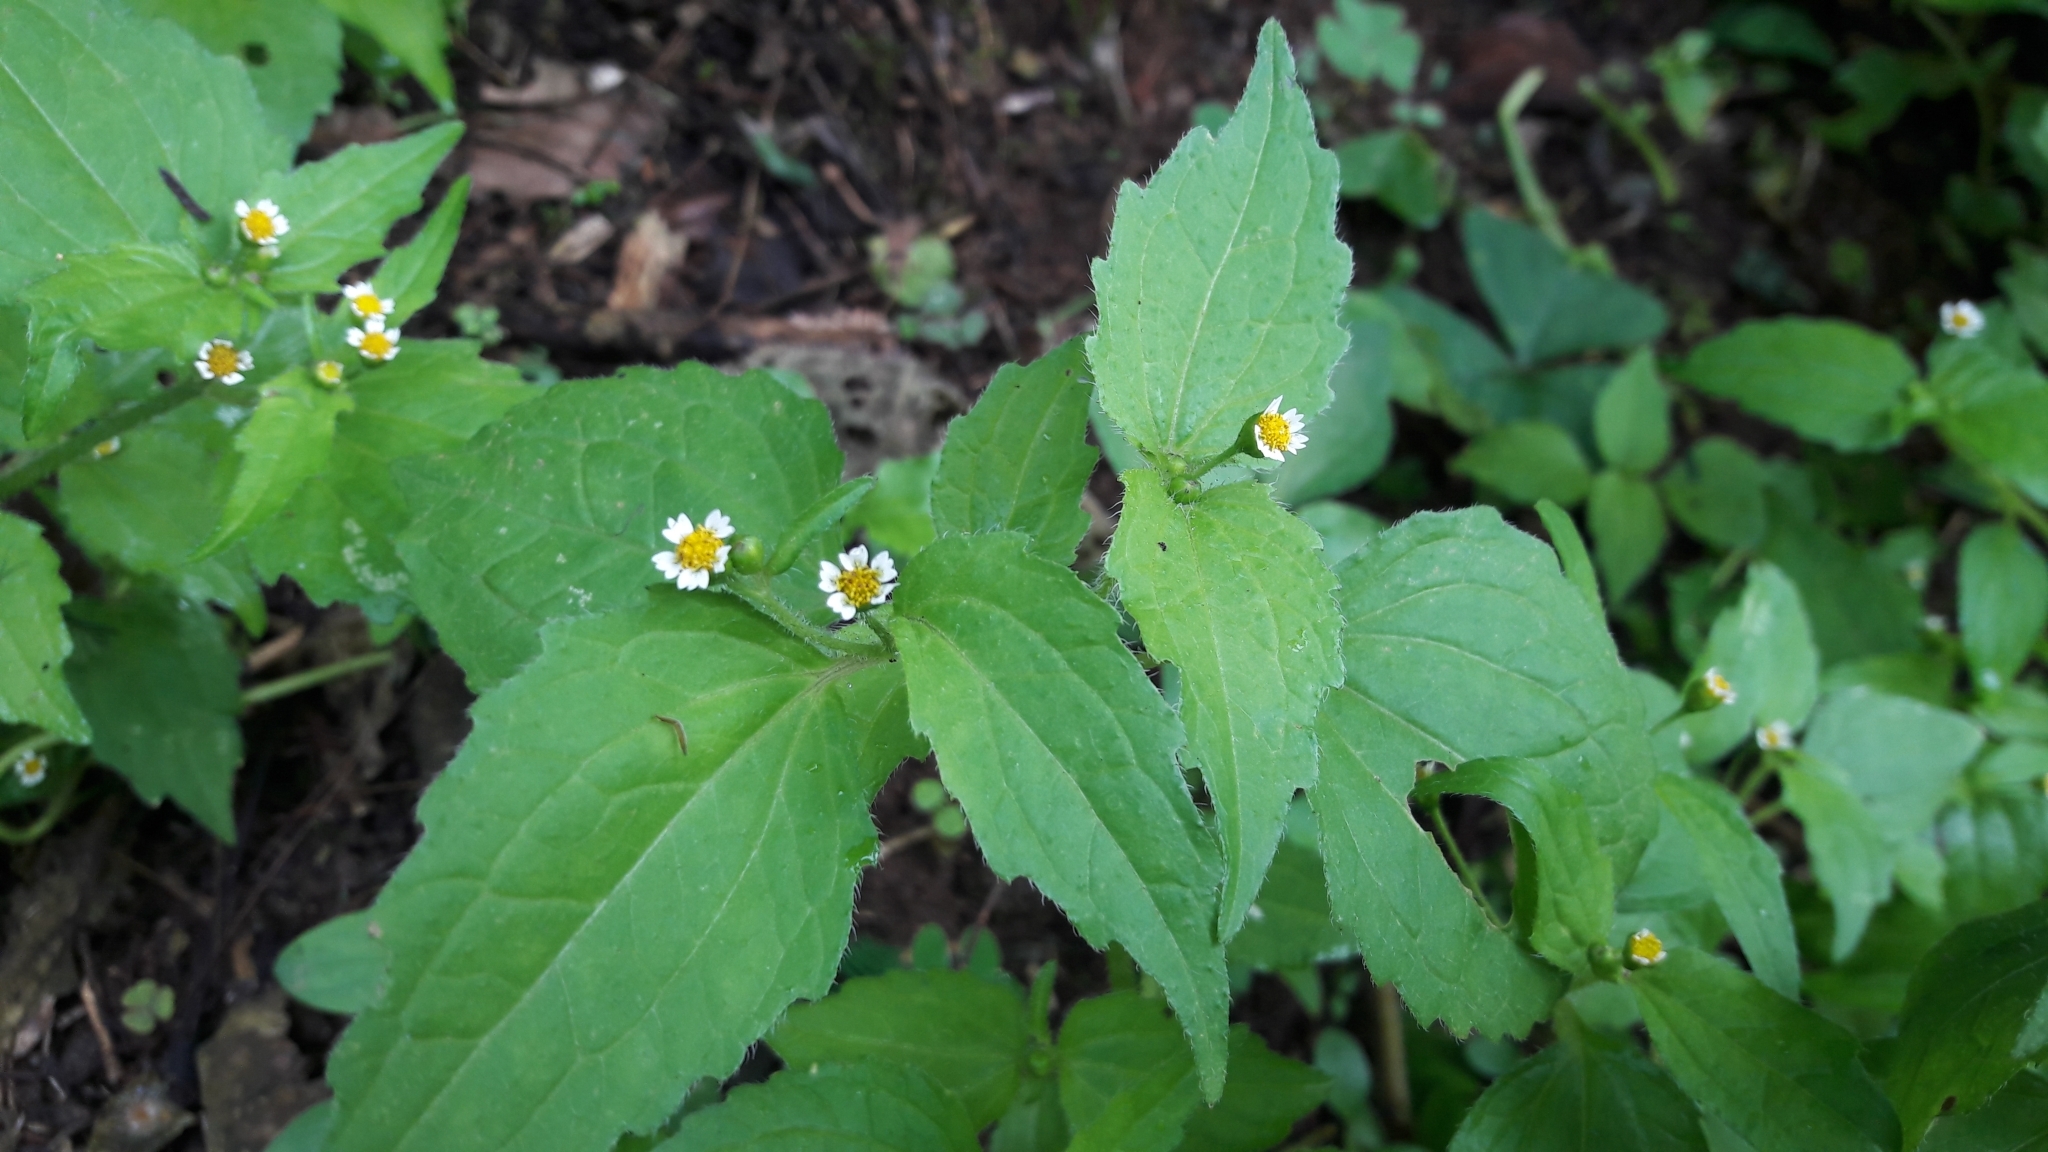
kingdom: Plantae
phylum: Tracheophyta
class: Magnoliopsida
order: Asterales
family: Asteraceae
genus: Galinsoga
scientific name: Galinsoga parviflora
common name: Gallant soldier
